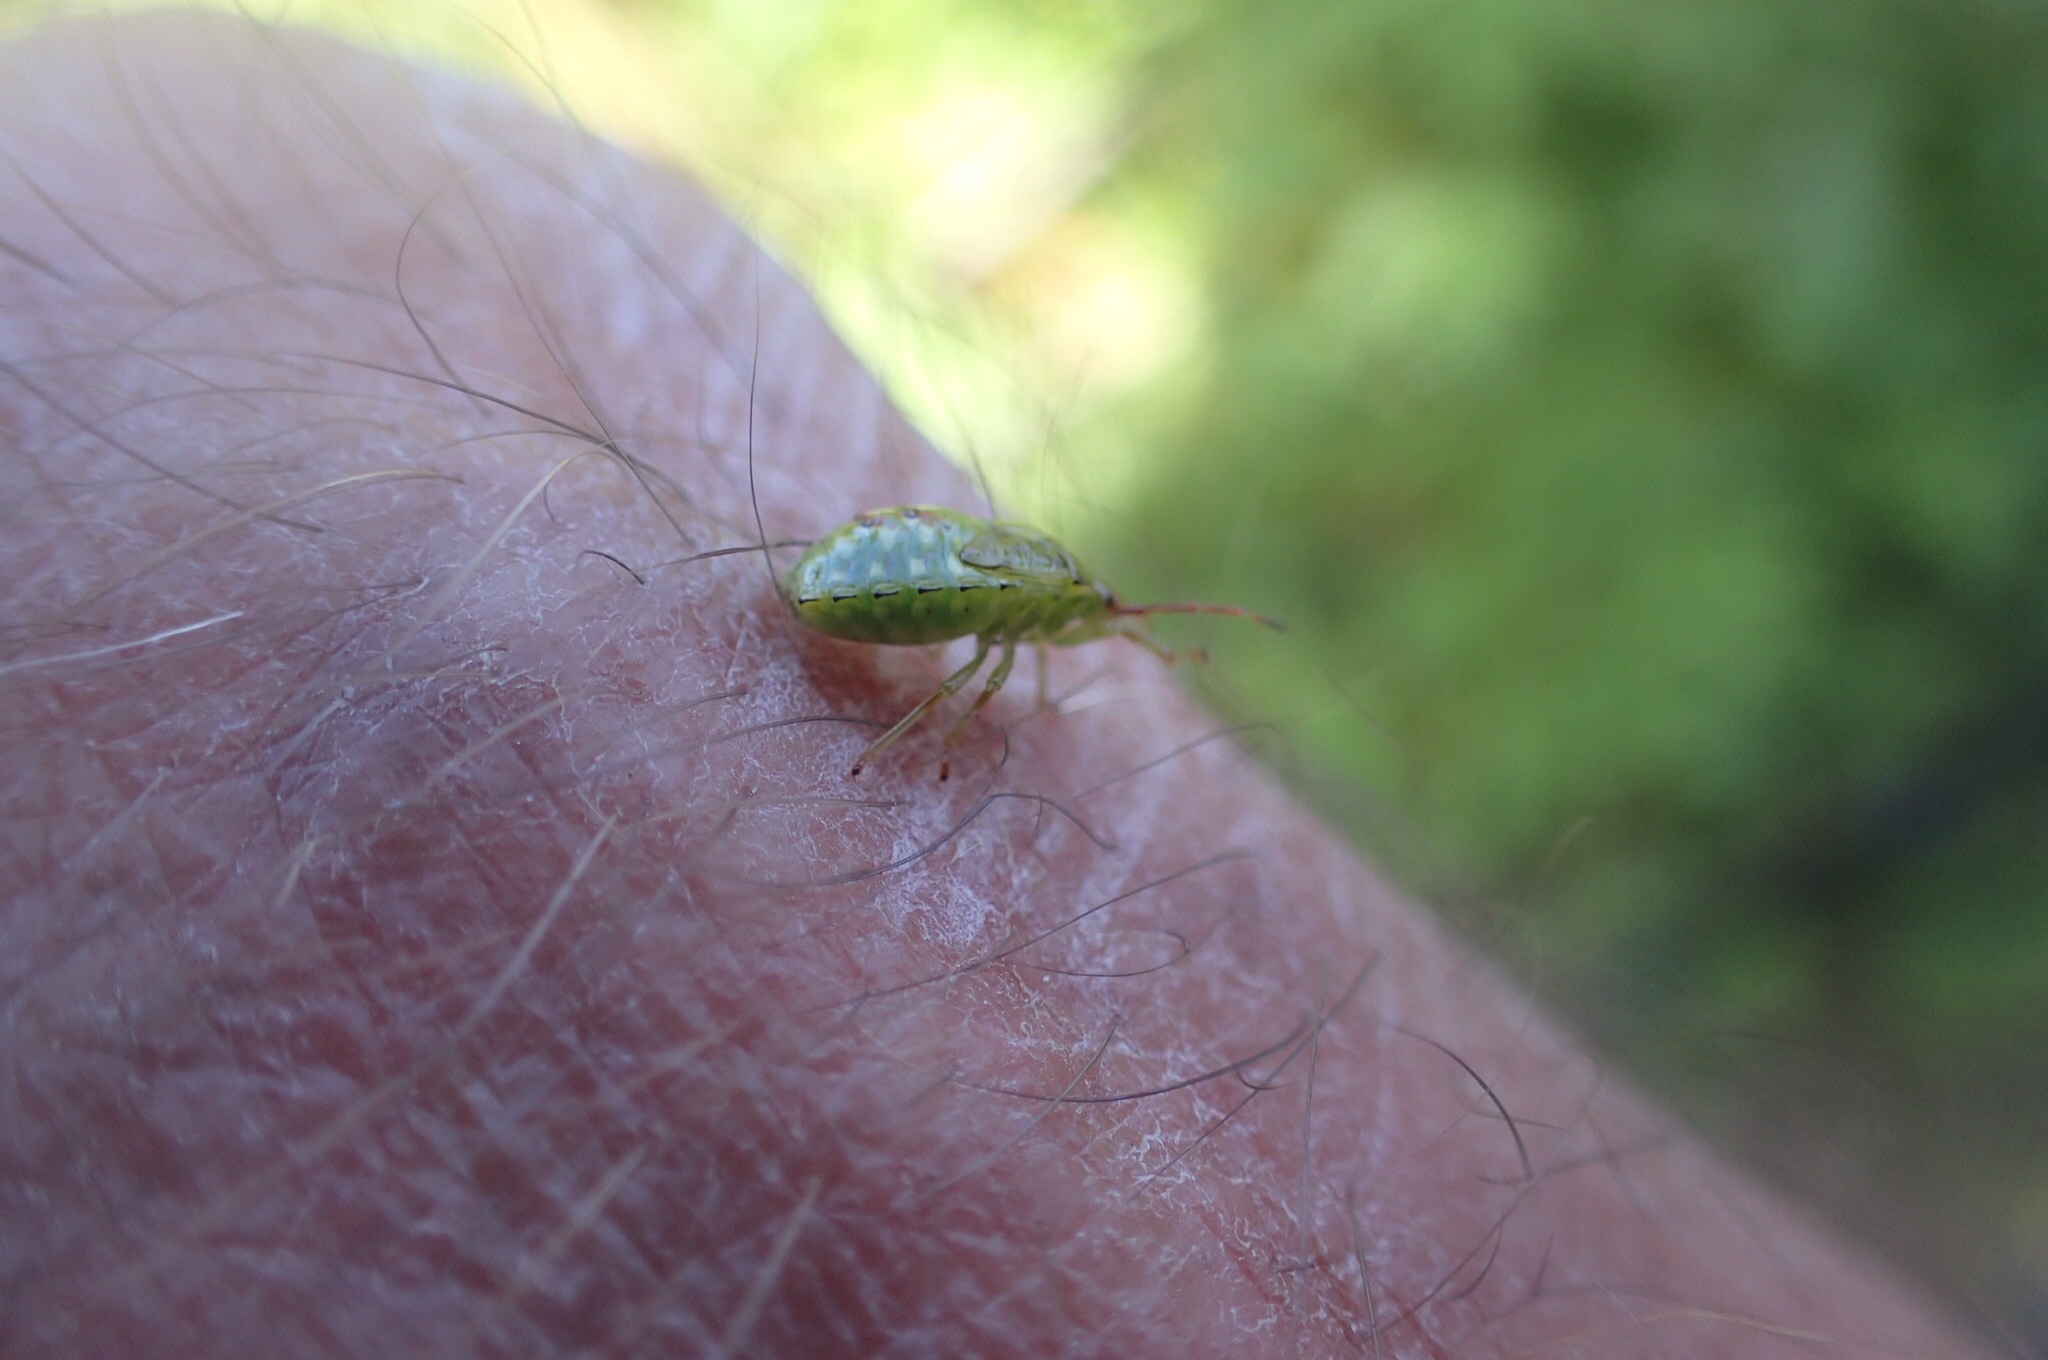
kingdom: Animalia
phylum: Arthropoda
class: Insecta
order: Hemiptera
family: Acanthosomatidae
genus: Elasmostethus
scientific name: Elasmostethus cruciatus
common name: Red-cross shield bug
